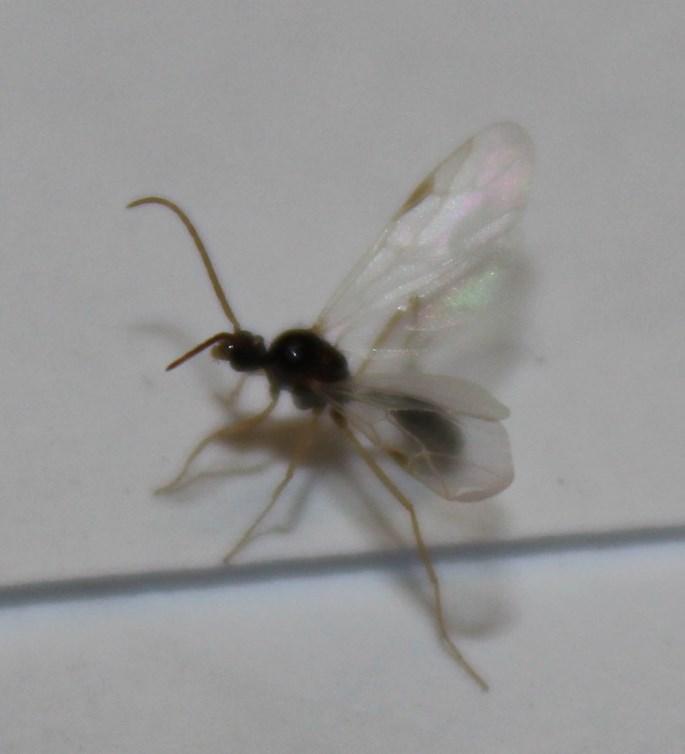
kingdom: Animalia
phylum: Arthropoda
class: Insecta
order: Hymenoptera
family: Formicidae
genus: Myrmicaria
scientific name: Myrmicaria nigra
